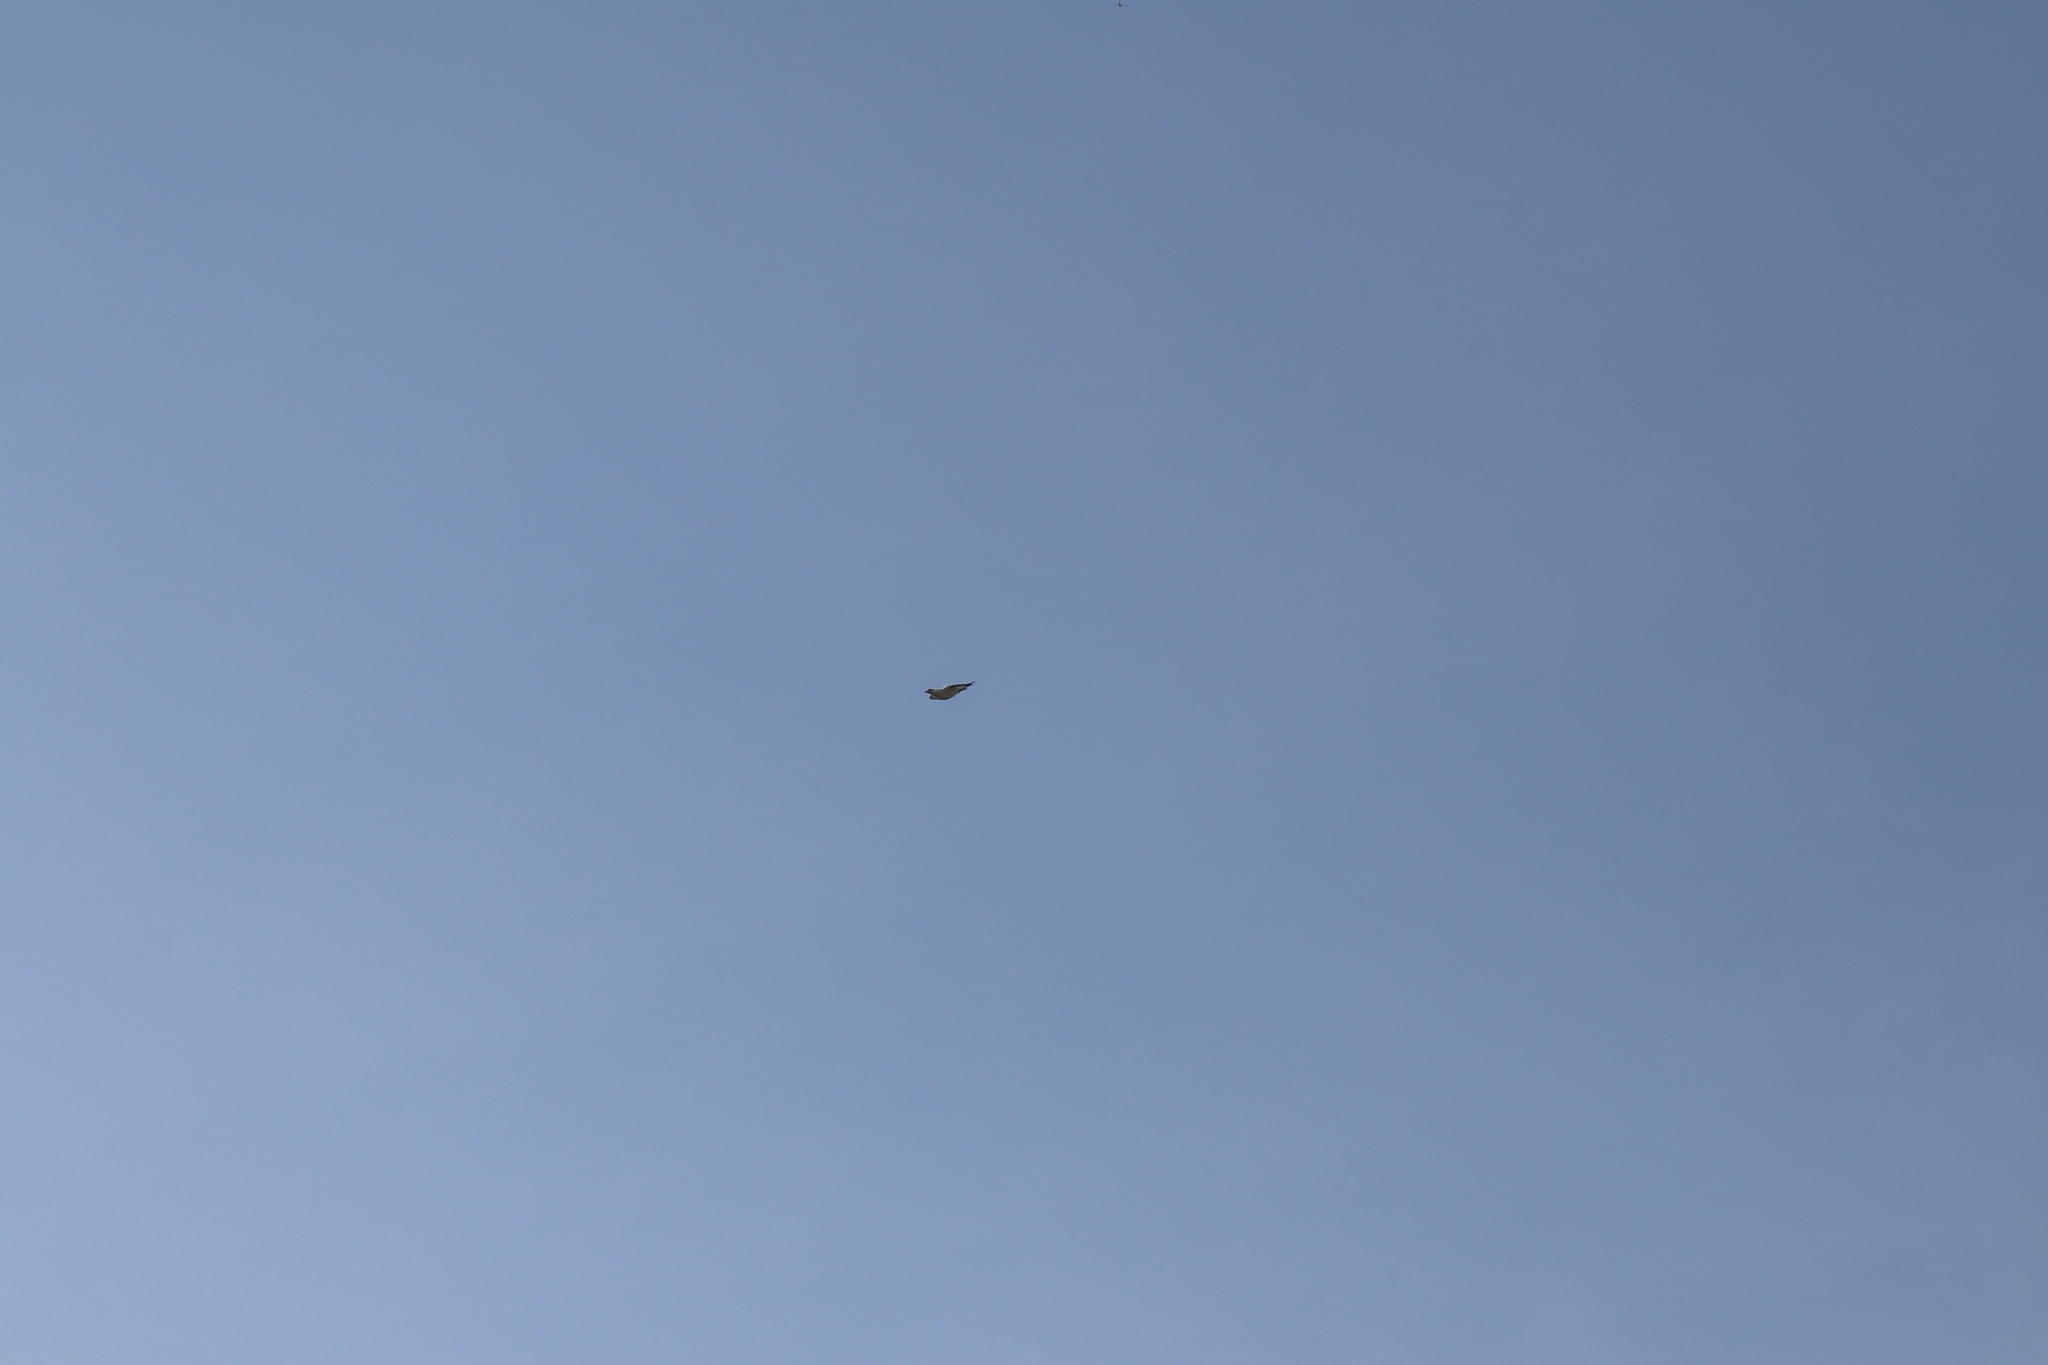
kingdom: Animalia
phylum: Chordata
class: Aves
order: Columbiformes
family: Columbidae
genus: Ducula
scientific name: Ducula spilorrhoa
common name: Torresian imperial pigeon
